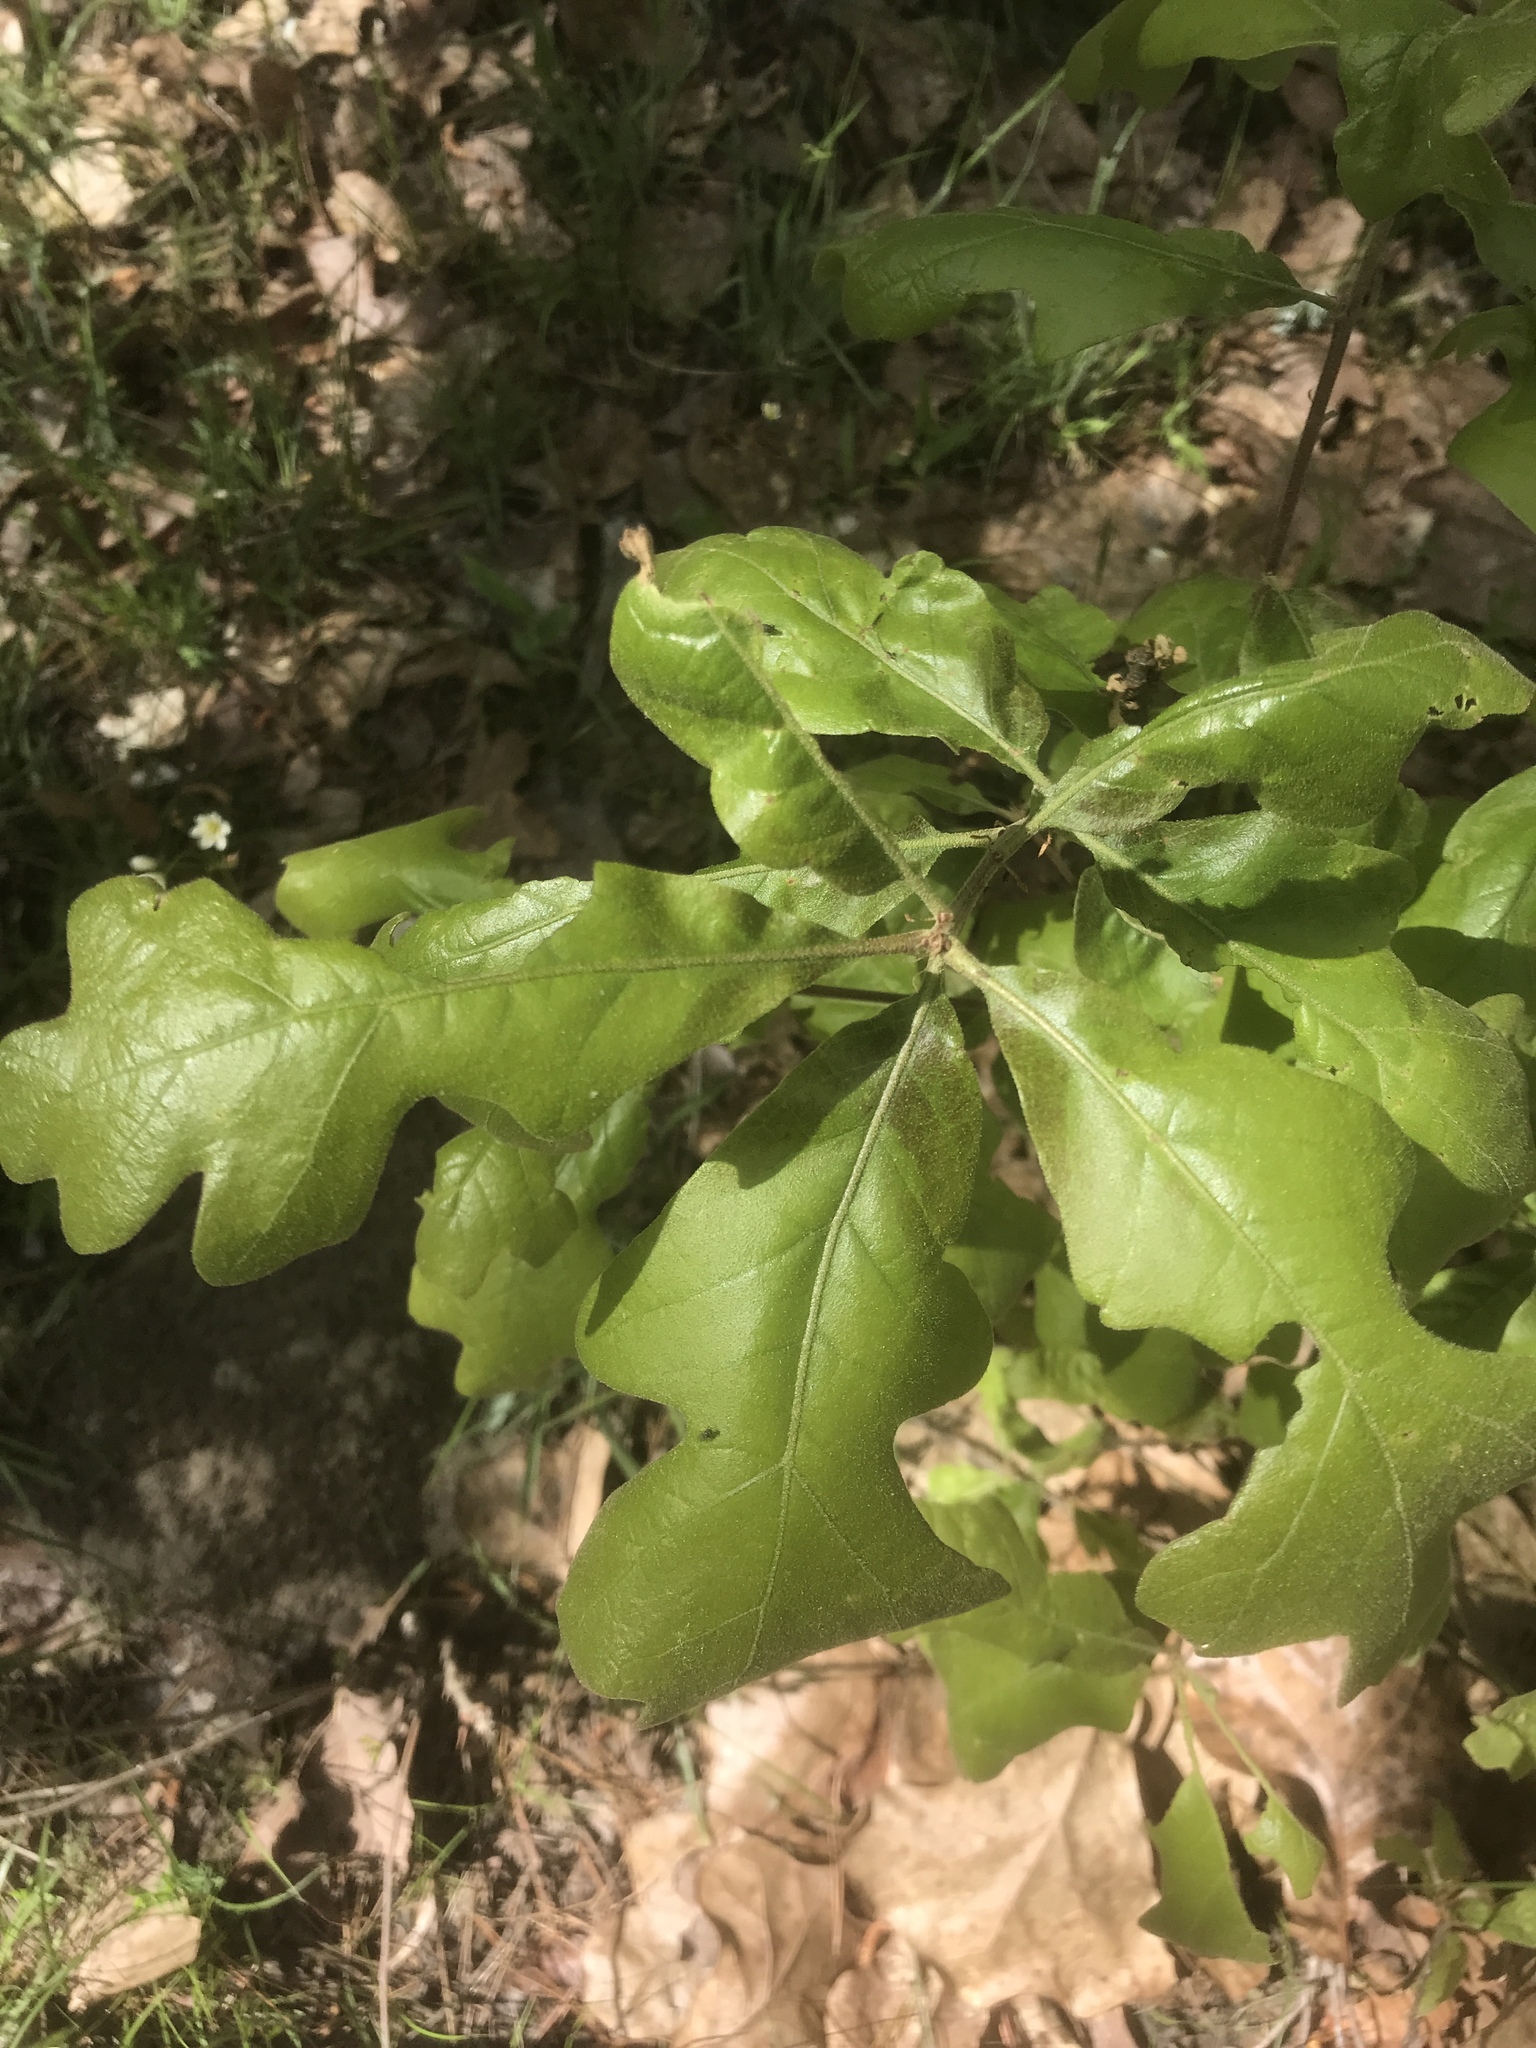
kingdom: Plantae
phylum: Tracheophyta
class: Magnoliopsida
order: Fagales
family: Fagaceae
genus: Quercus
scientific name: Quercus stellata
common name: Post oak
